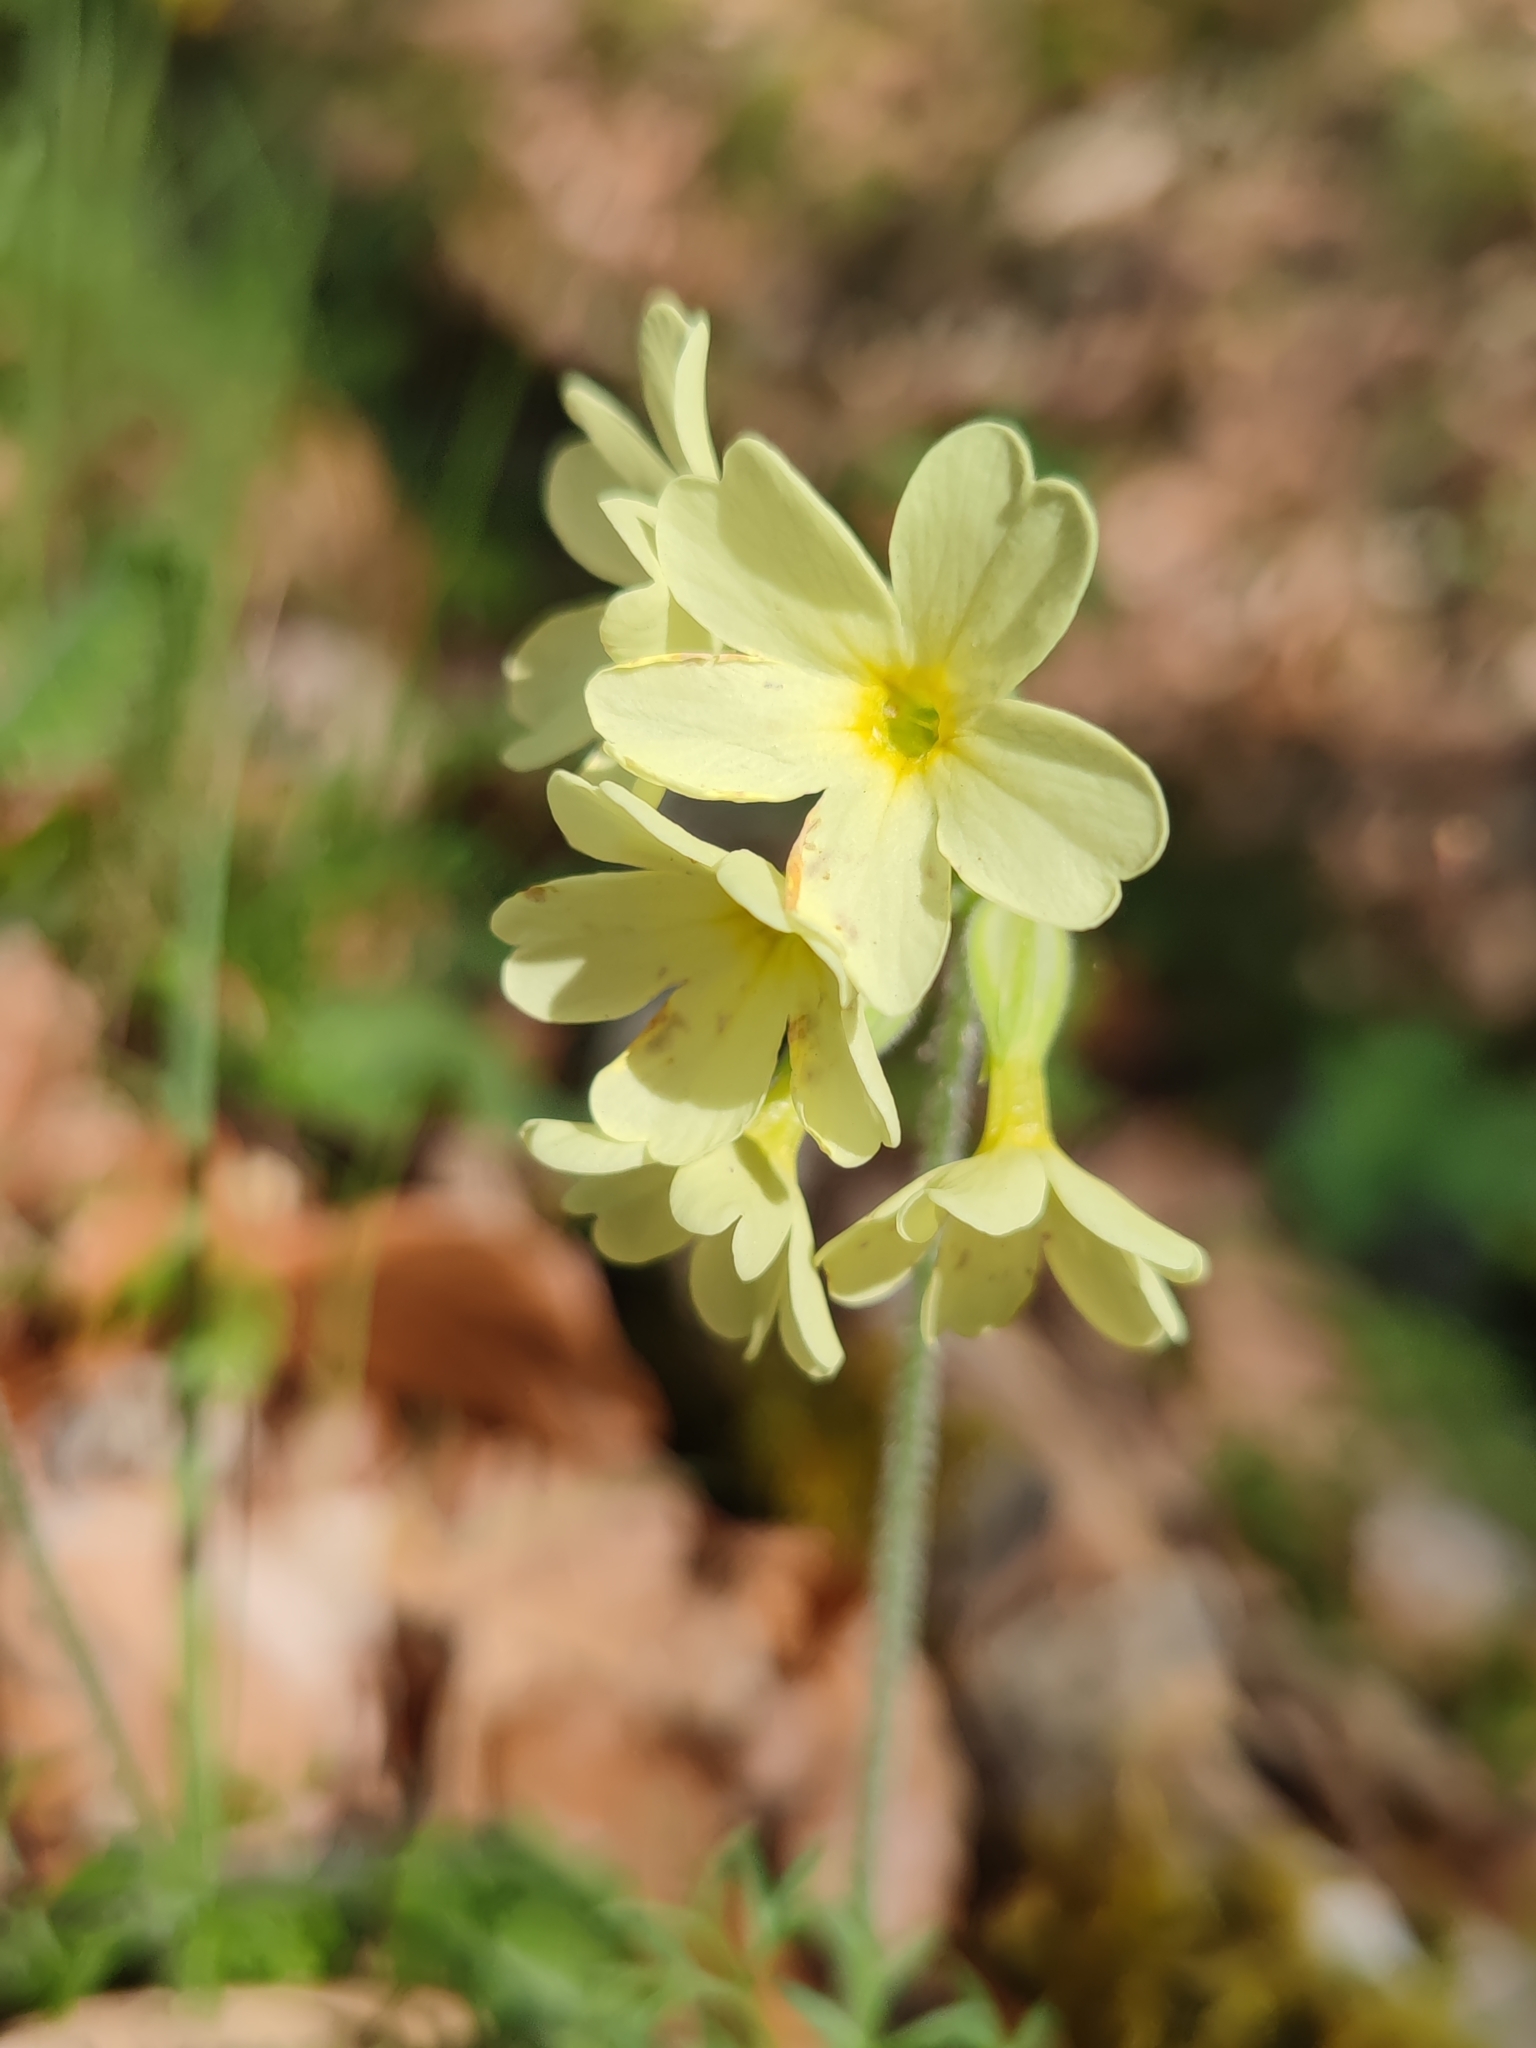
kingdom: Plantae
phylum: Tracheophyta
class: Magnoliopsida
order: Ericales
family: Primulaceae
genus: Primula
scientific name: Primula elatior
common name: Oxlip
